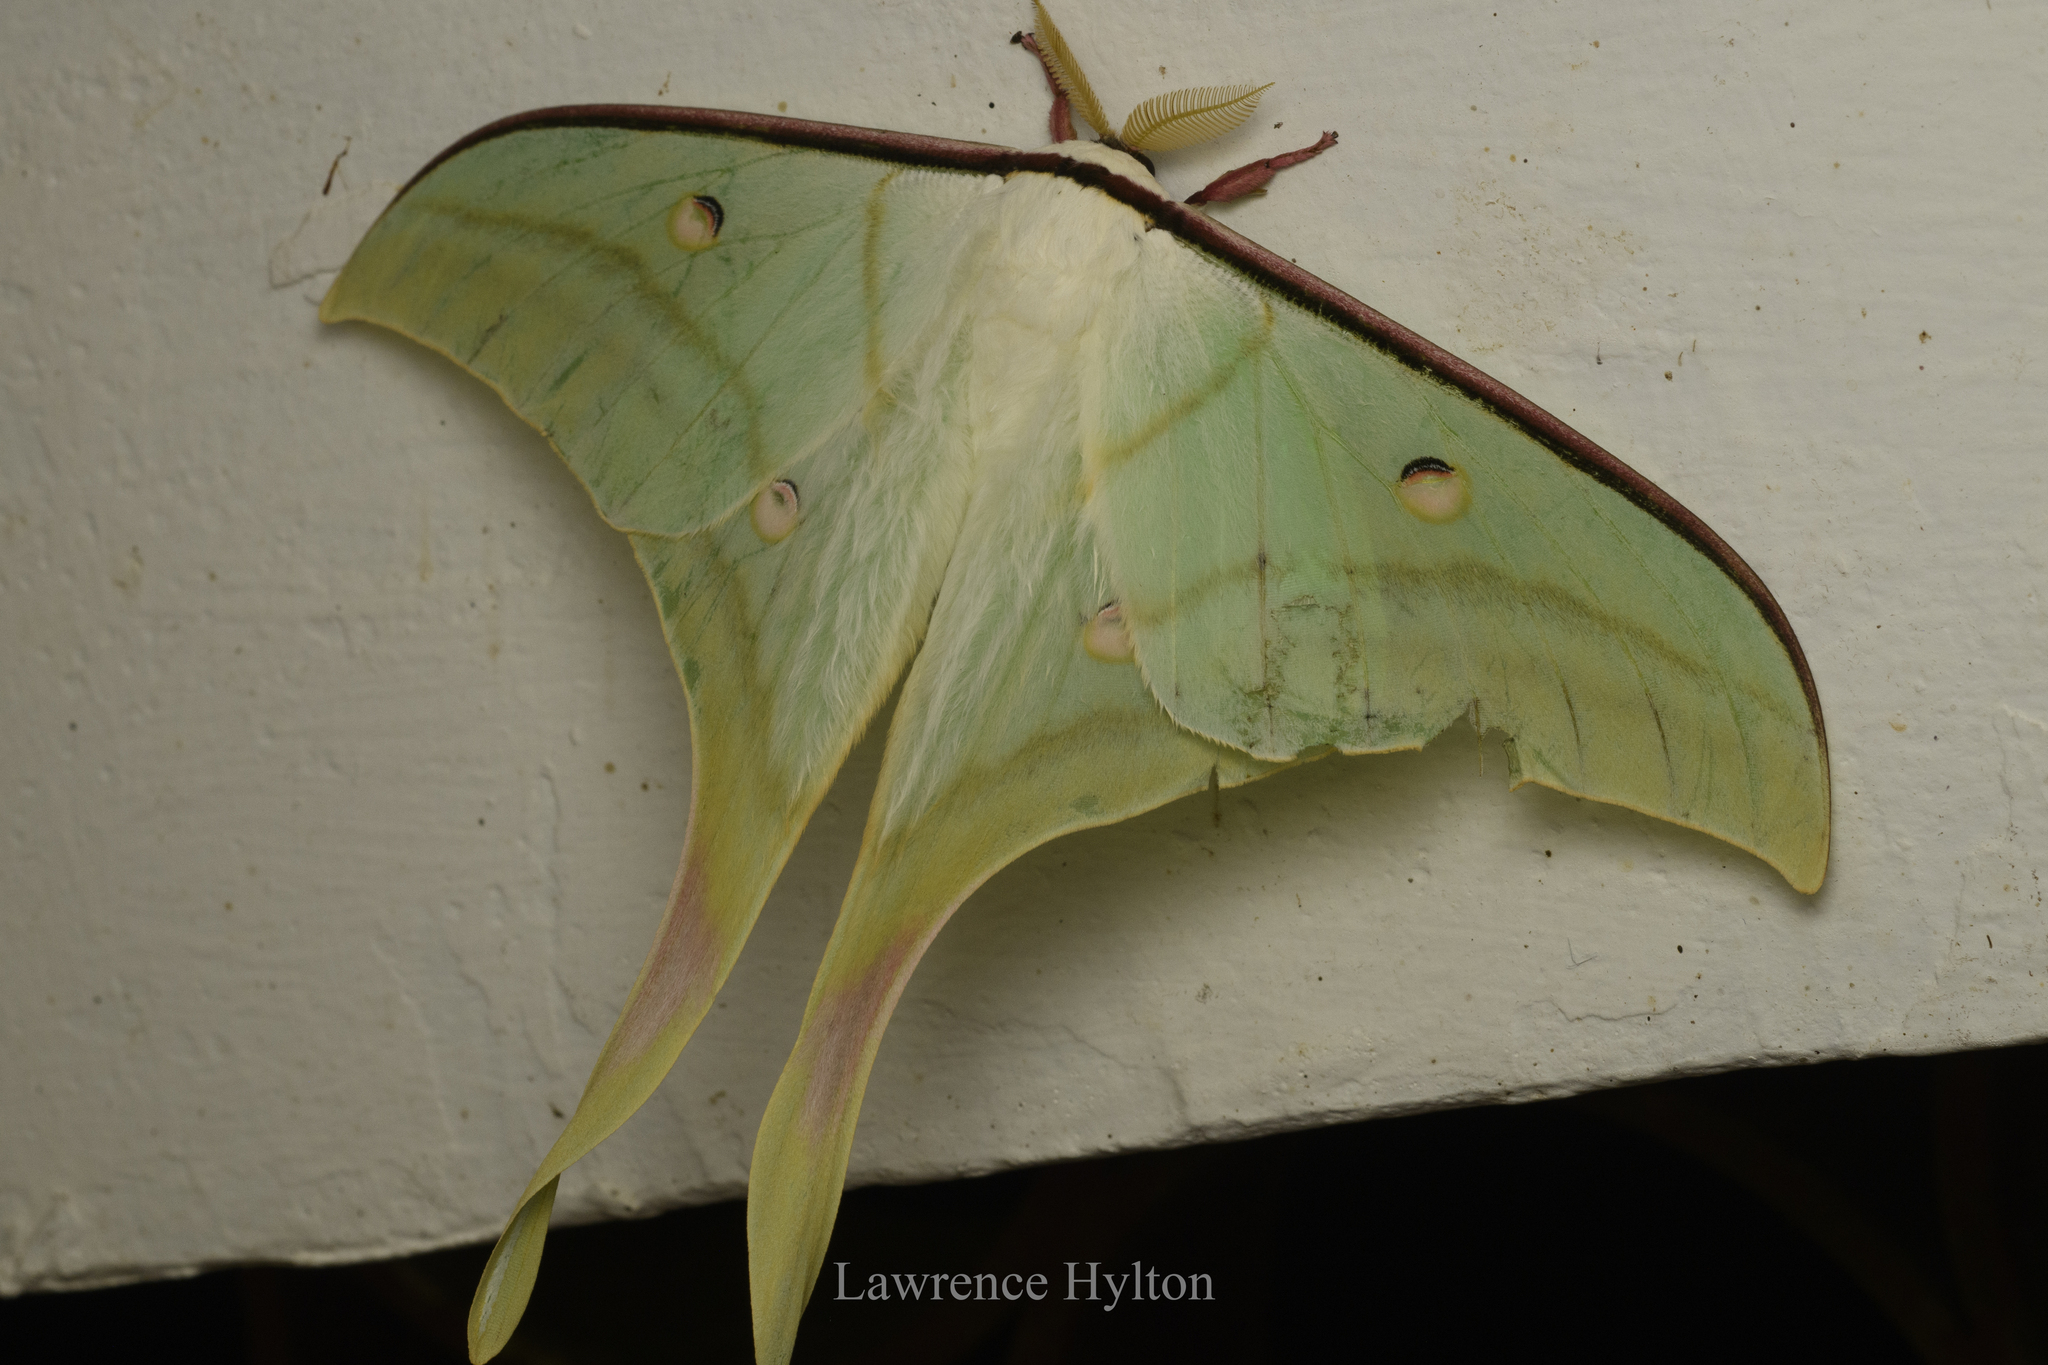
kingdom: Animalia
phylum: Arthropoda
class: Insecta
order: Lepidoptera
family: Saturniidae
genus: Actias
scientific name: Actias ningpoana
